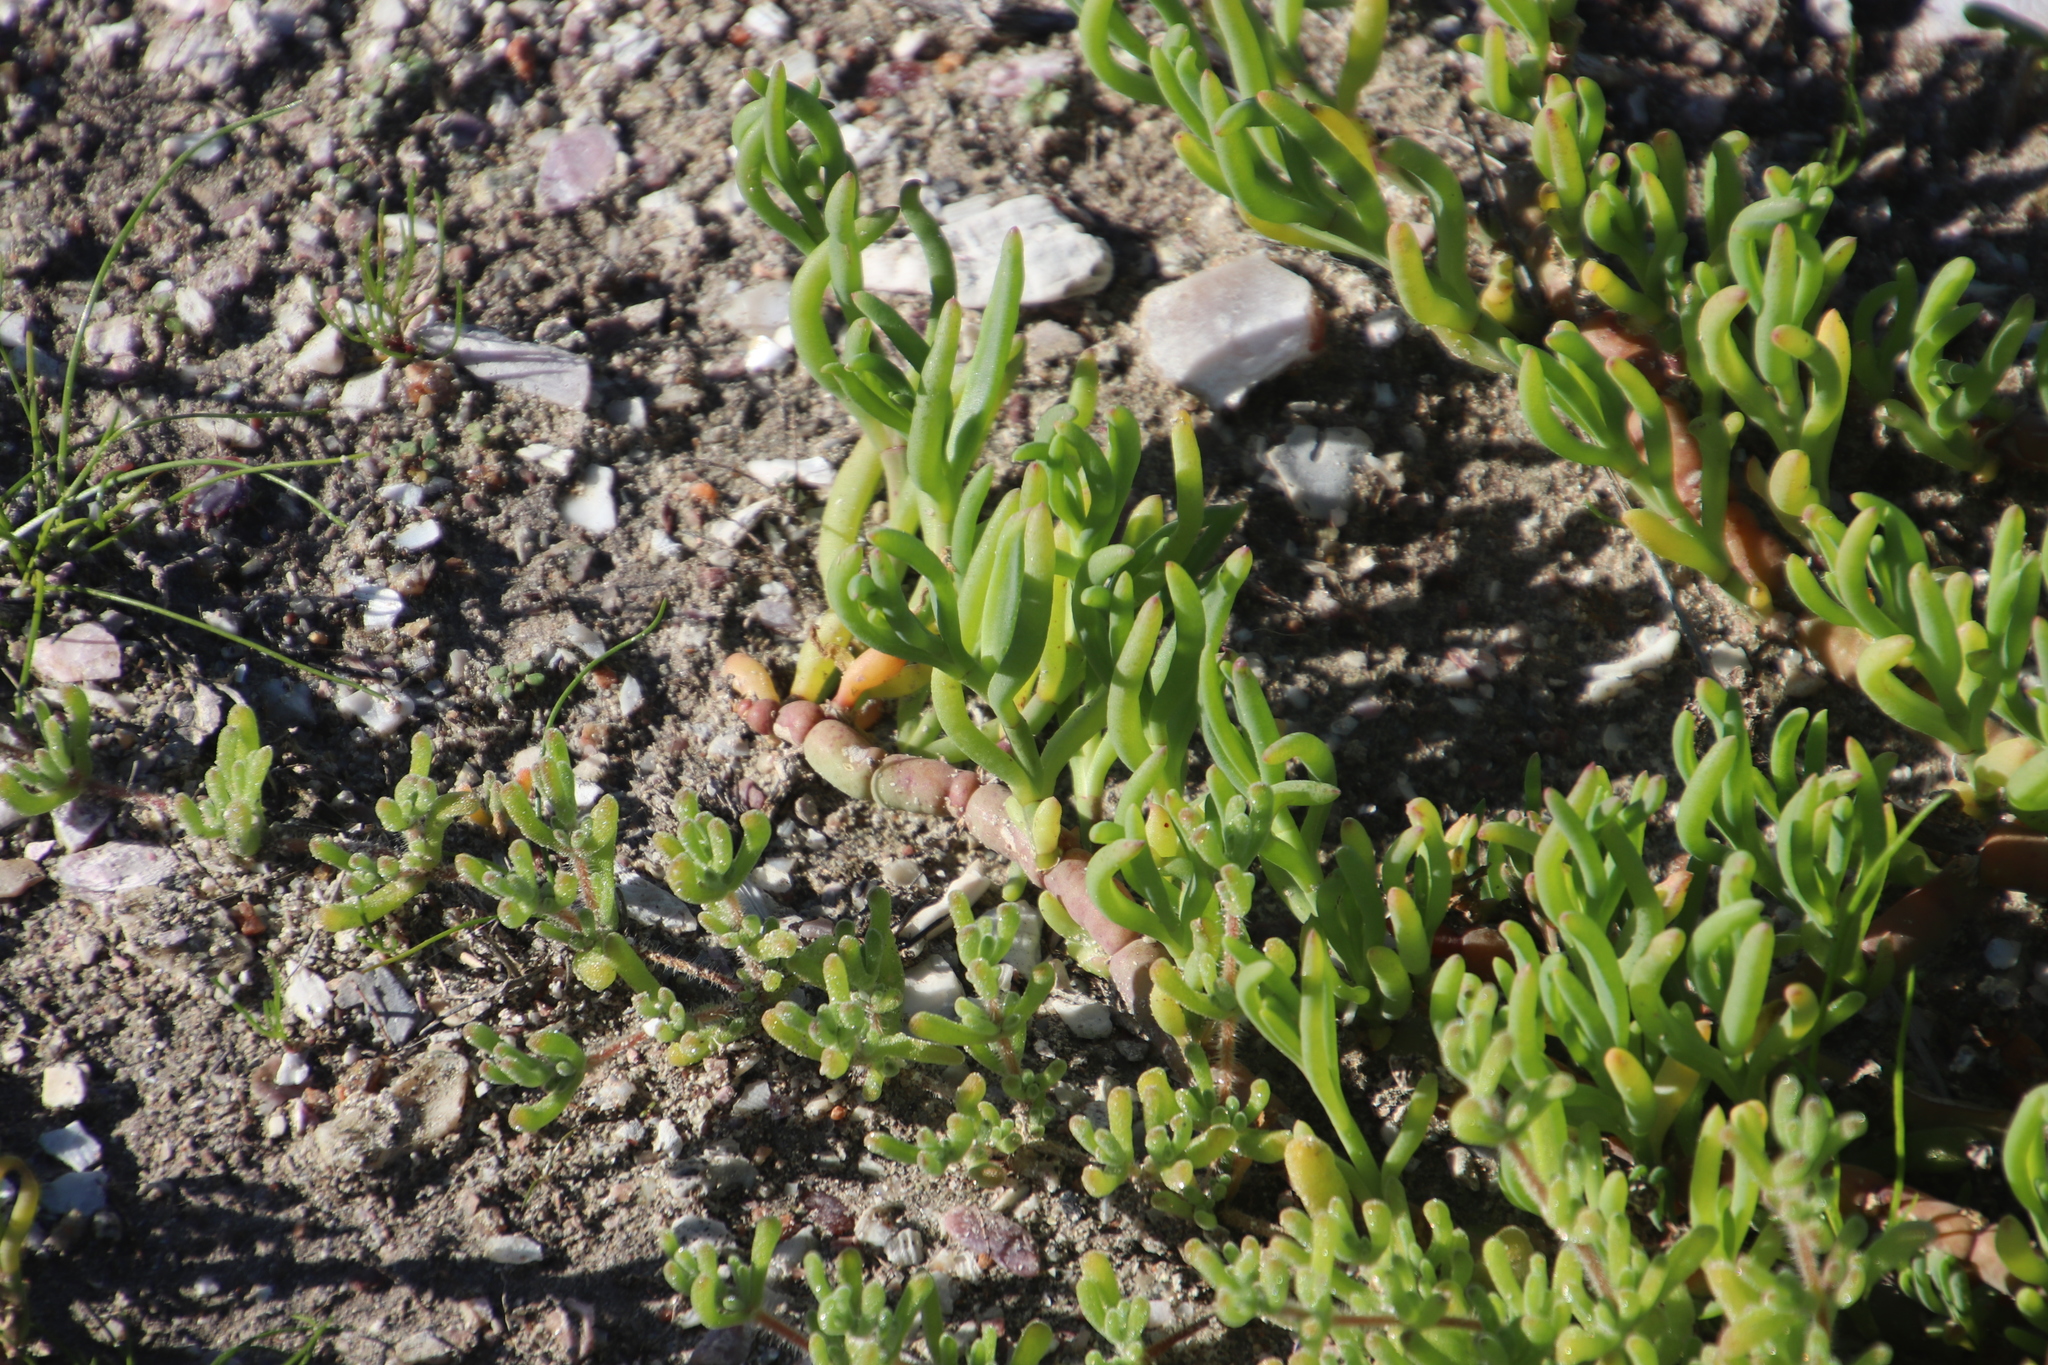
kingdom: Plantae
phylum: Tracheophyta
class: Magnoliopsida
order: Caryophyllales
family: Aizoaceae
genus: Mesembryanthemum
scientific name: Mesembryanthemum junceum
